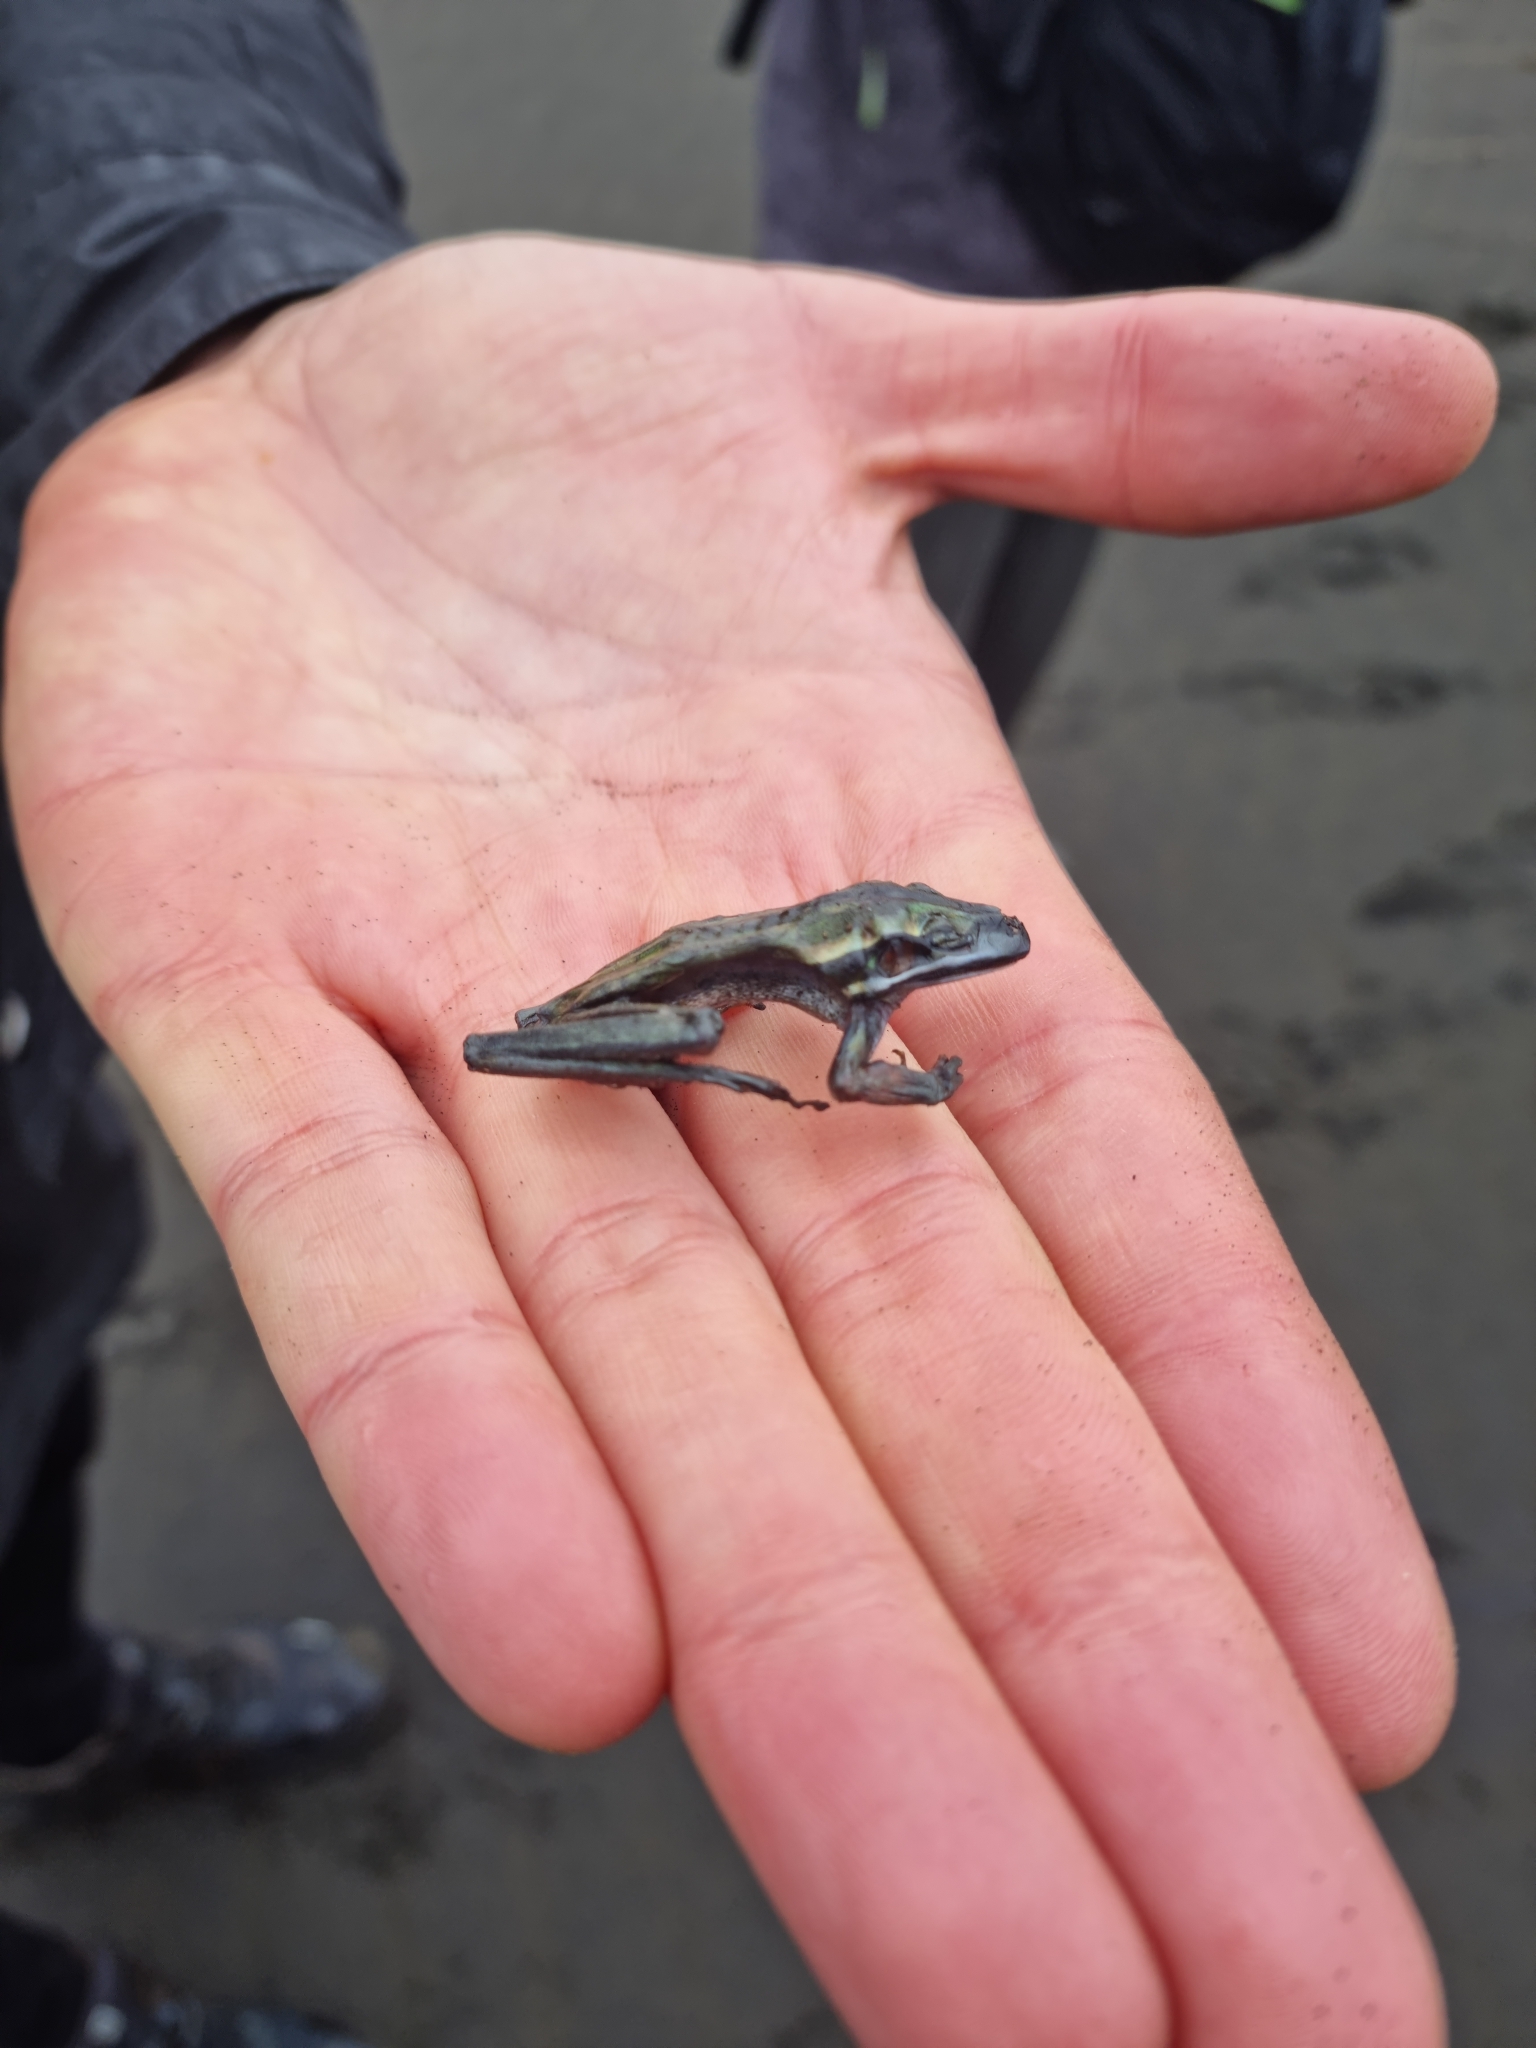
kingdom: Animalia
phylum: Chordata
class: Amphibia
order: Anura
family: Pelodryadidae
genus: Ranoidea
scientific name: Ranoidea raniformis
